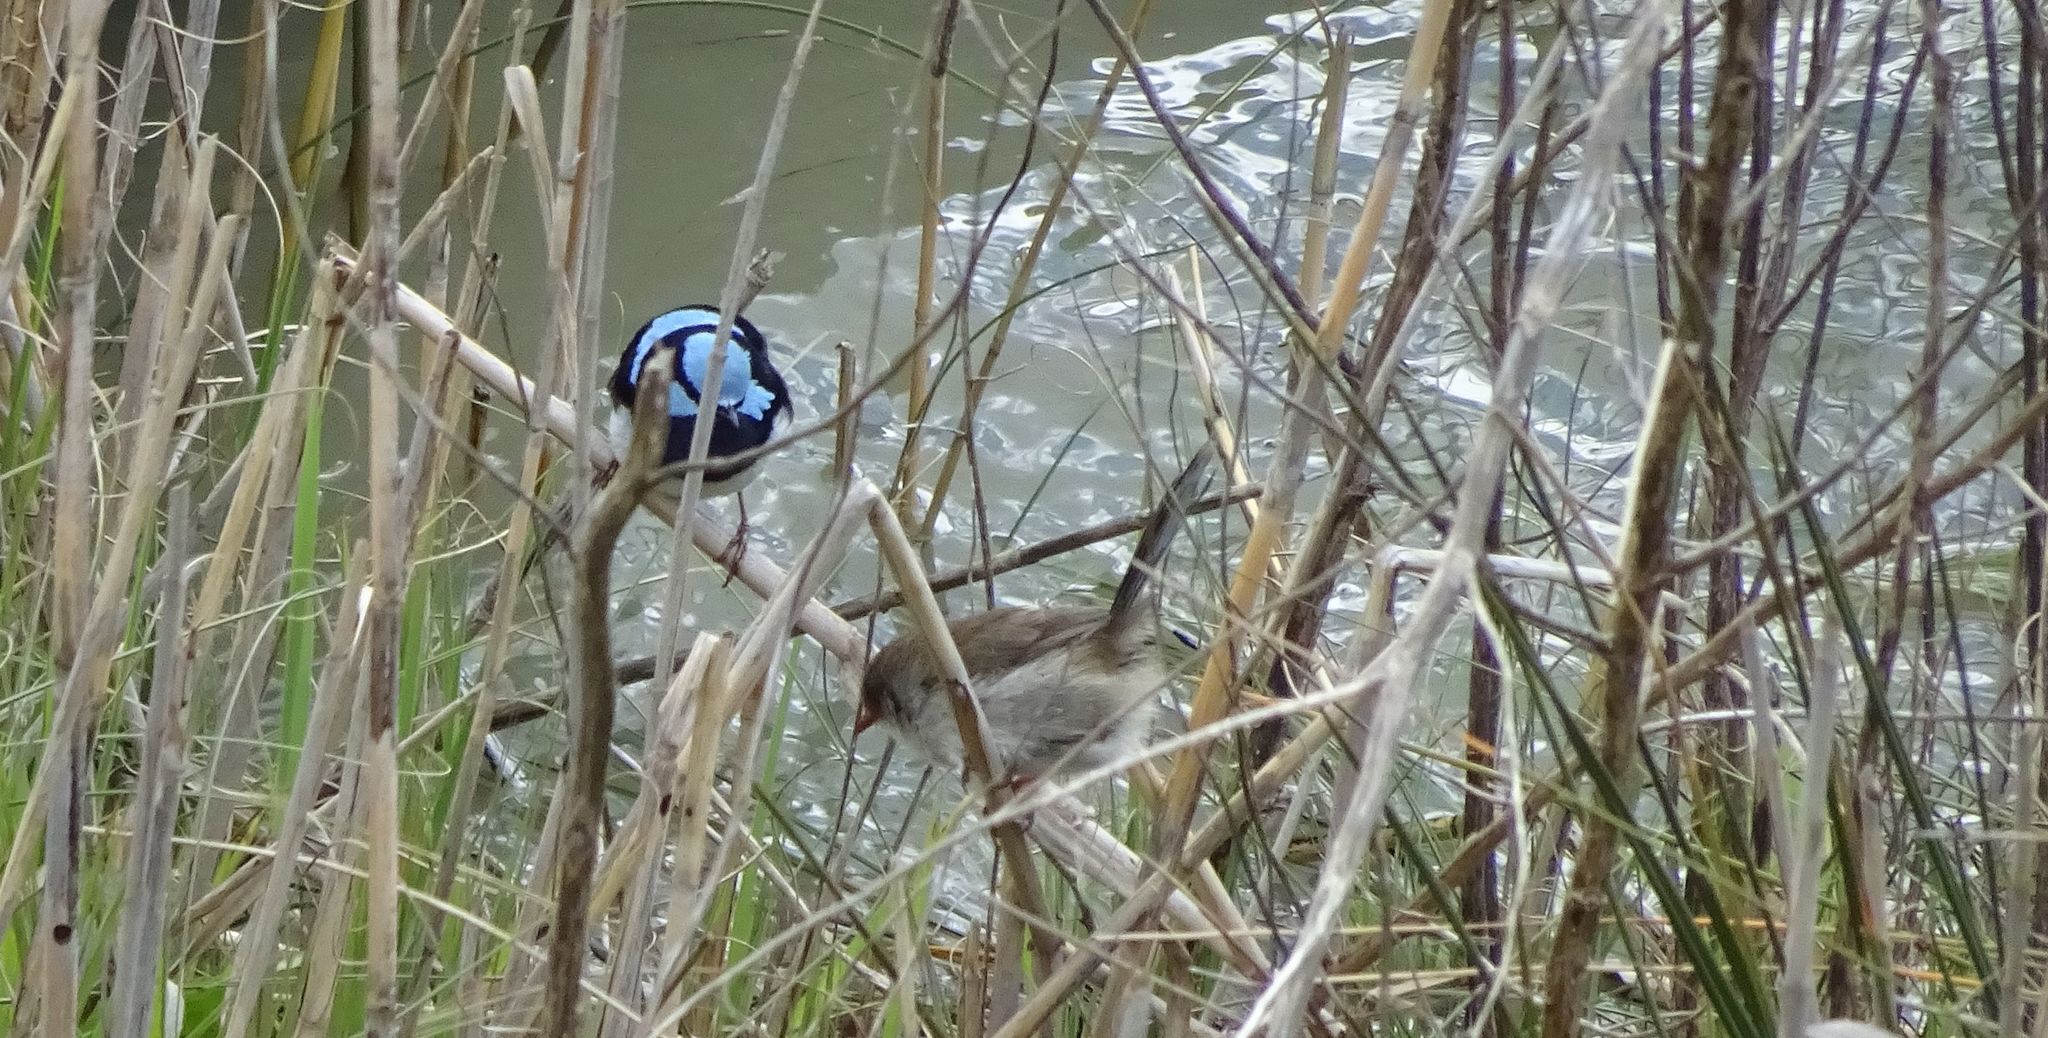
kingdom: Animalia
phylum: Chordata
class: Aves
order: Passeriformes
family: Maluridae
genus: Malurus
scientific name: Malurus cyaneus
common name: Superb fairywren
